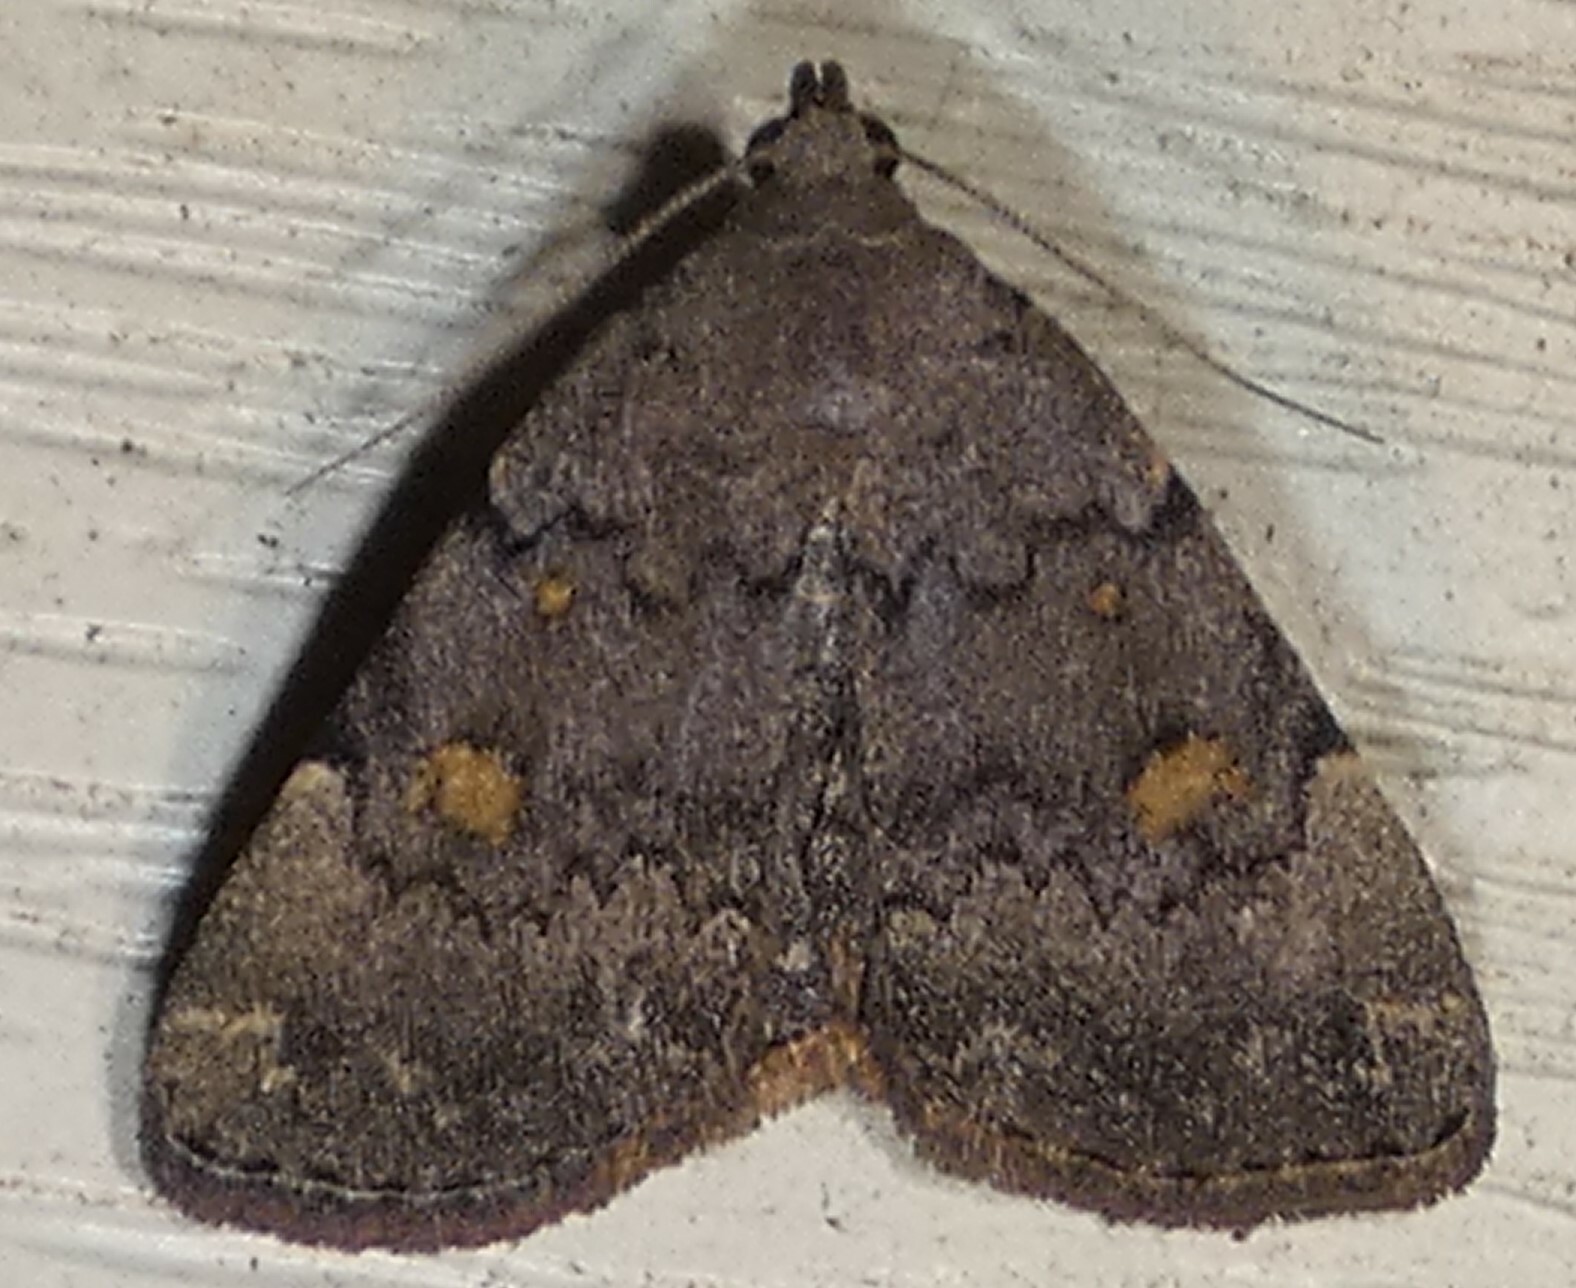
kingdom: Animalia
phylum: Arthropoda
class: Insecta
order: Lepidoptera
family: Erebidae
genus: Idia
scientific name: Idia aemula
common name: Common idia moth
